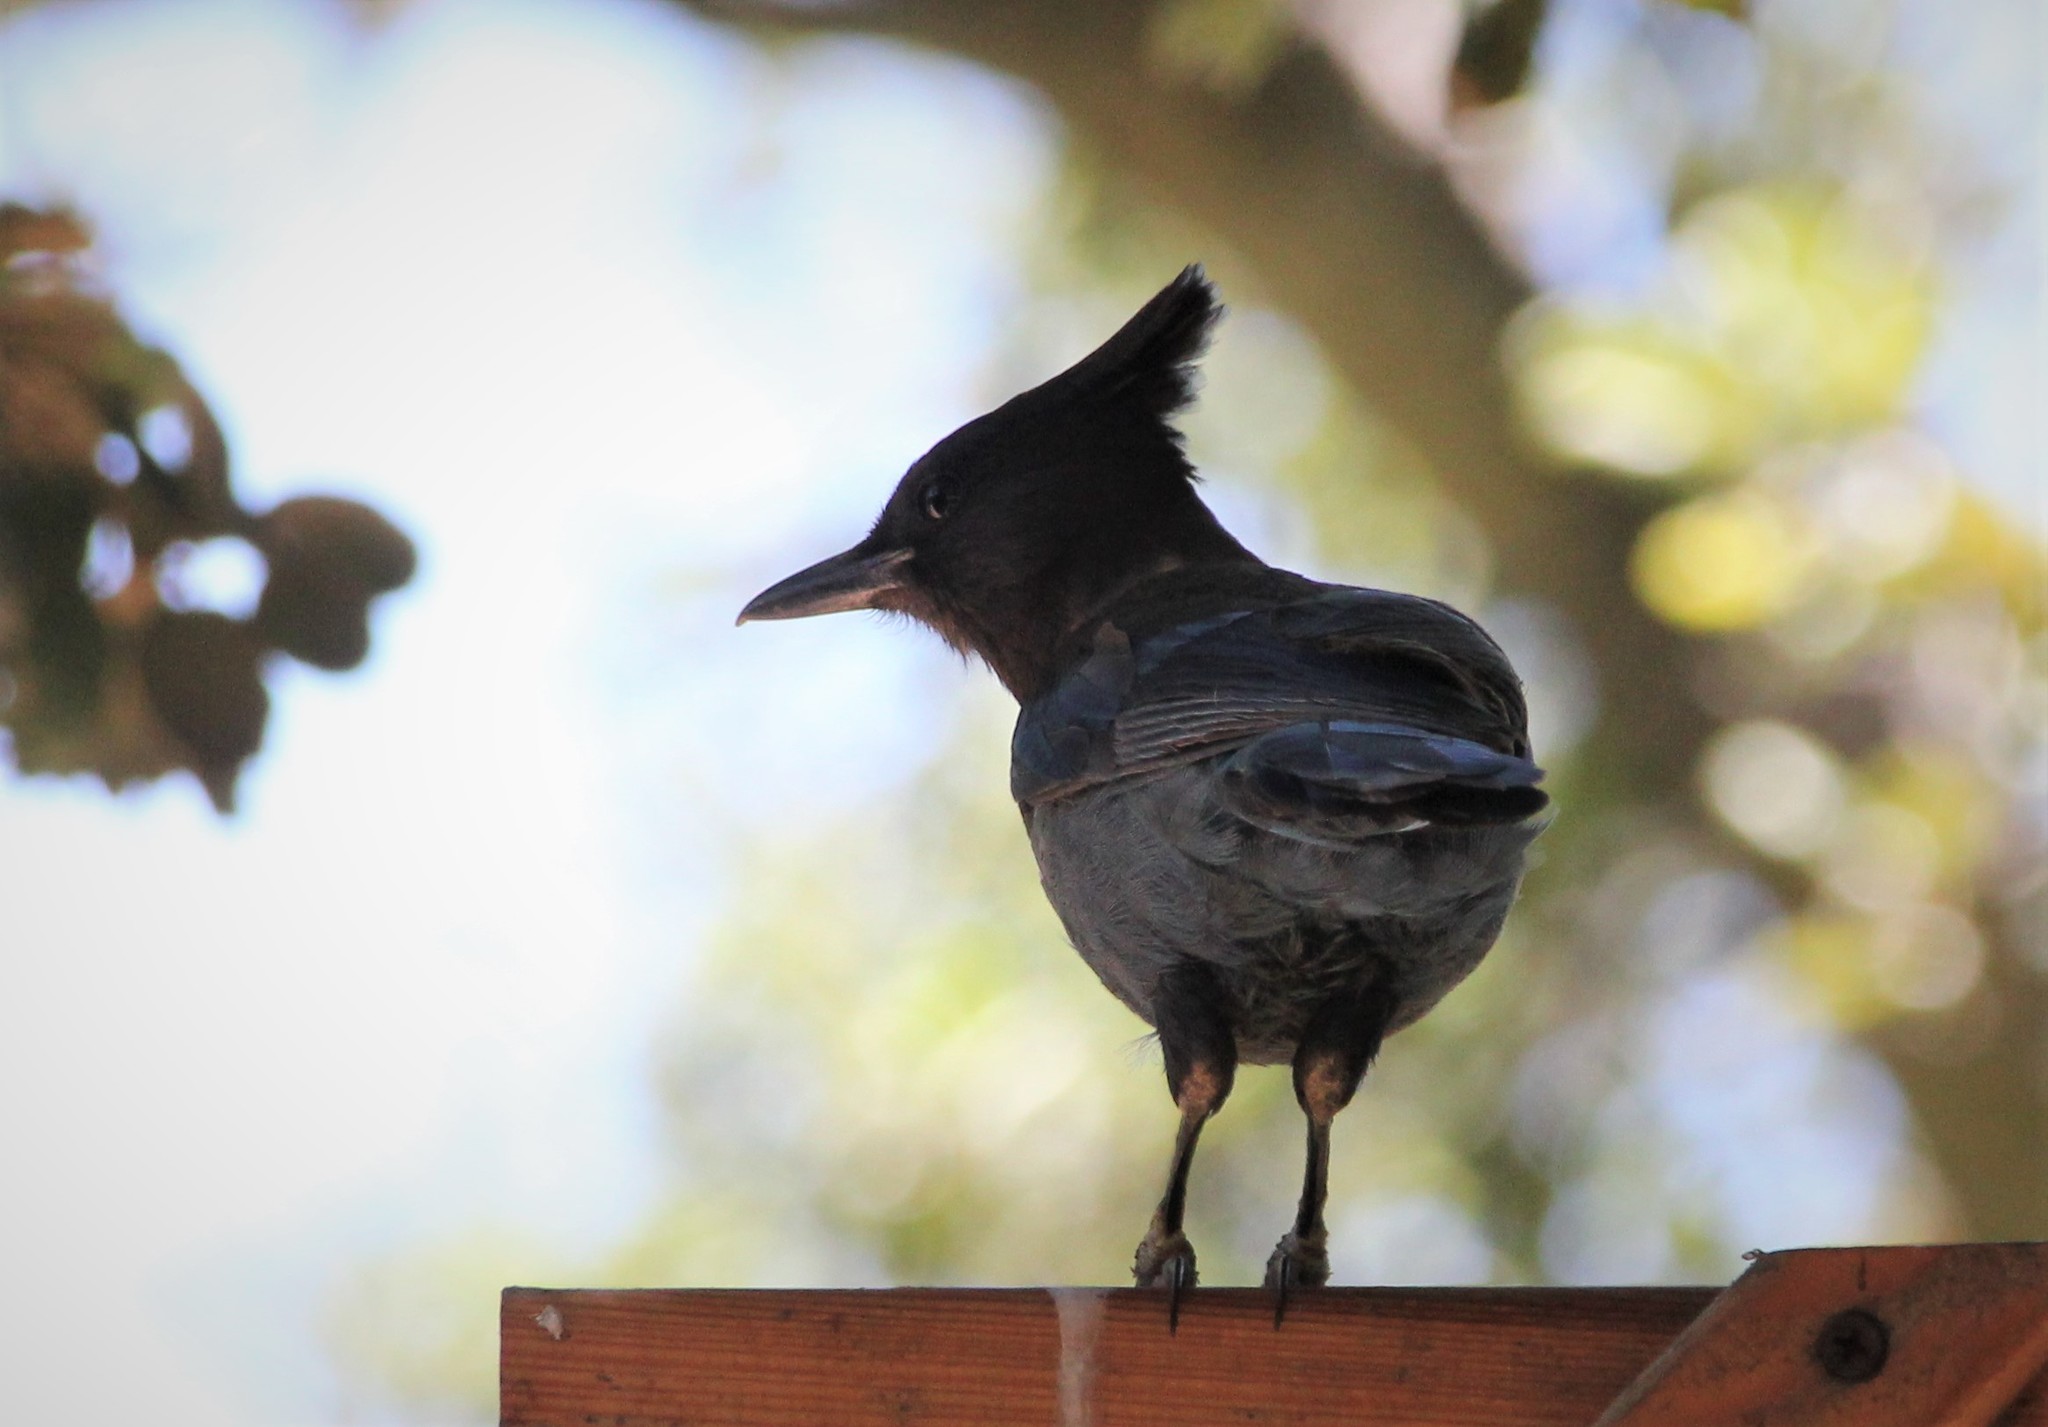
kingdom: Animalia
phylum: Chordata
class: Aves
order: Passeriformes
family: Corvidae
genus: Cyanocitta
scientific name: Cyanocitta stelleri
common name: Steller's jay
